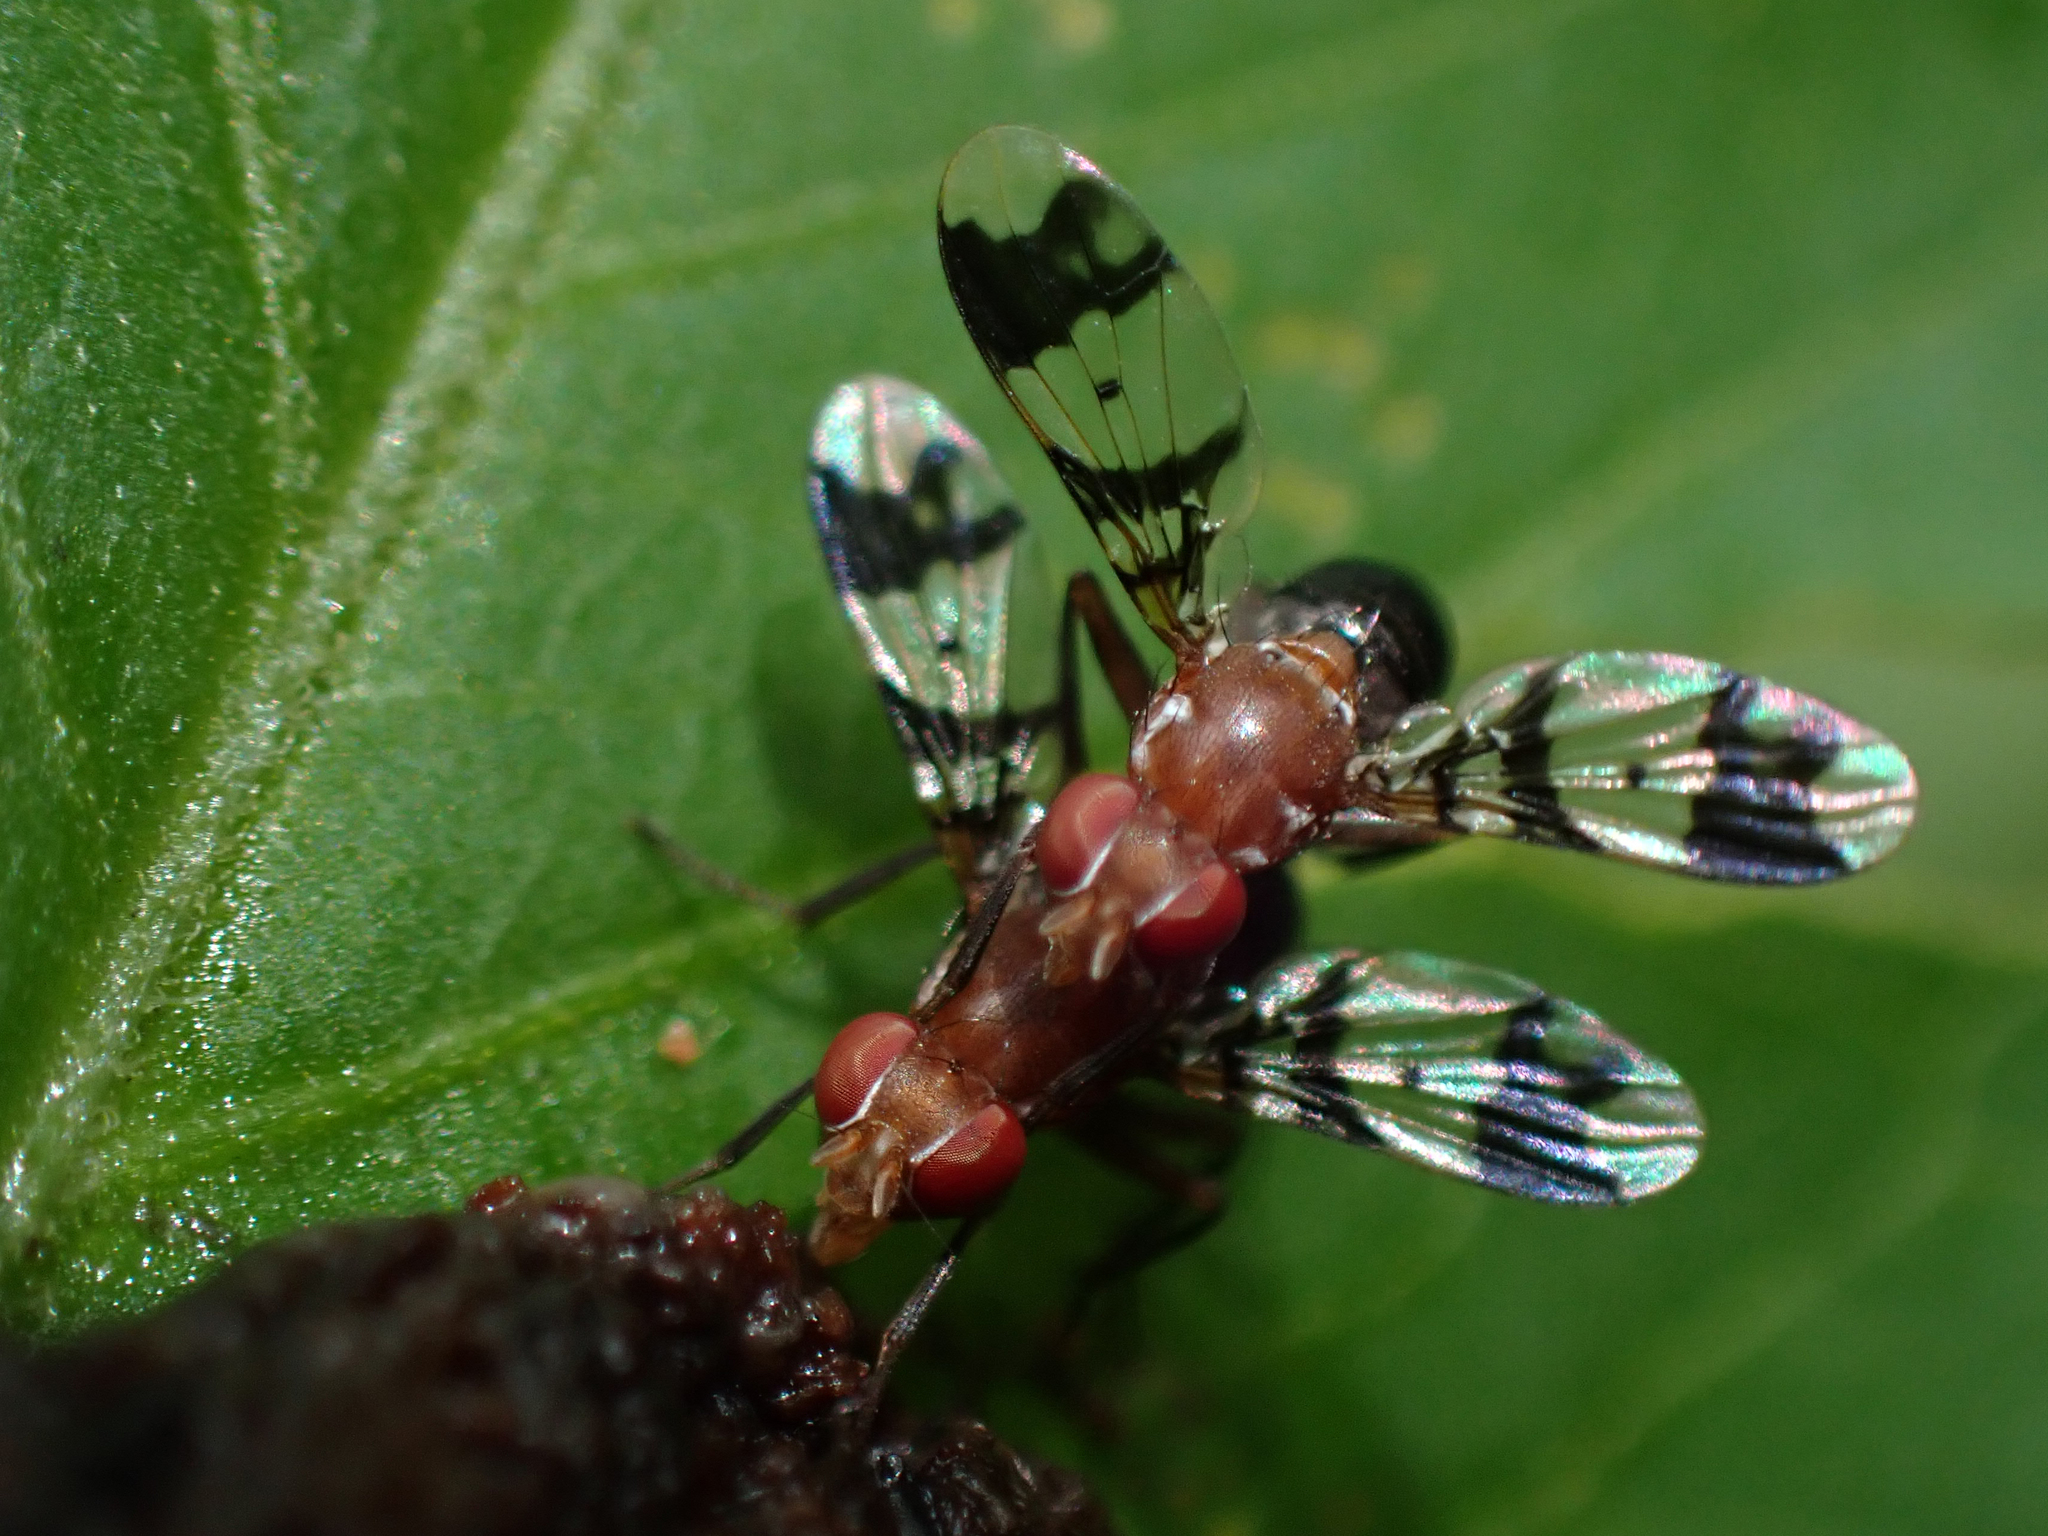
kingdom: Animalia
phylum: Arthropoda
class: Insecta
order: Diptera
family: Richardiidae
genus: Epiplatea
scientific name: Epiplatea erosa
